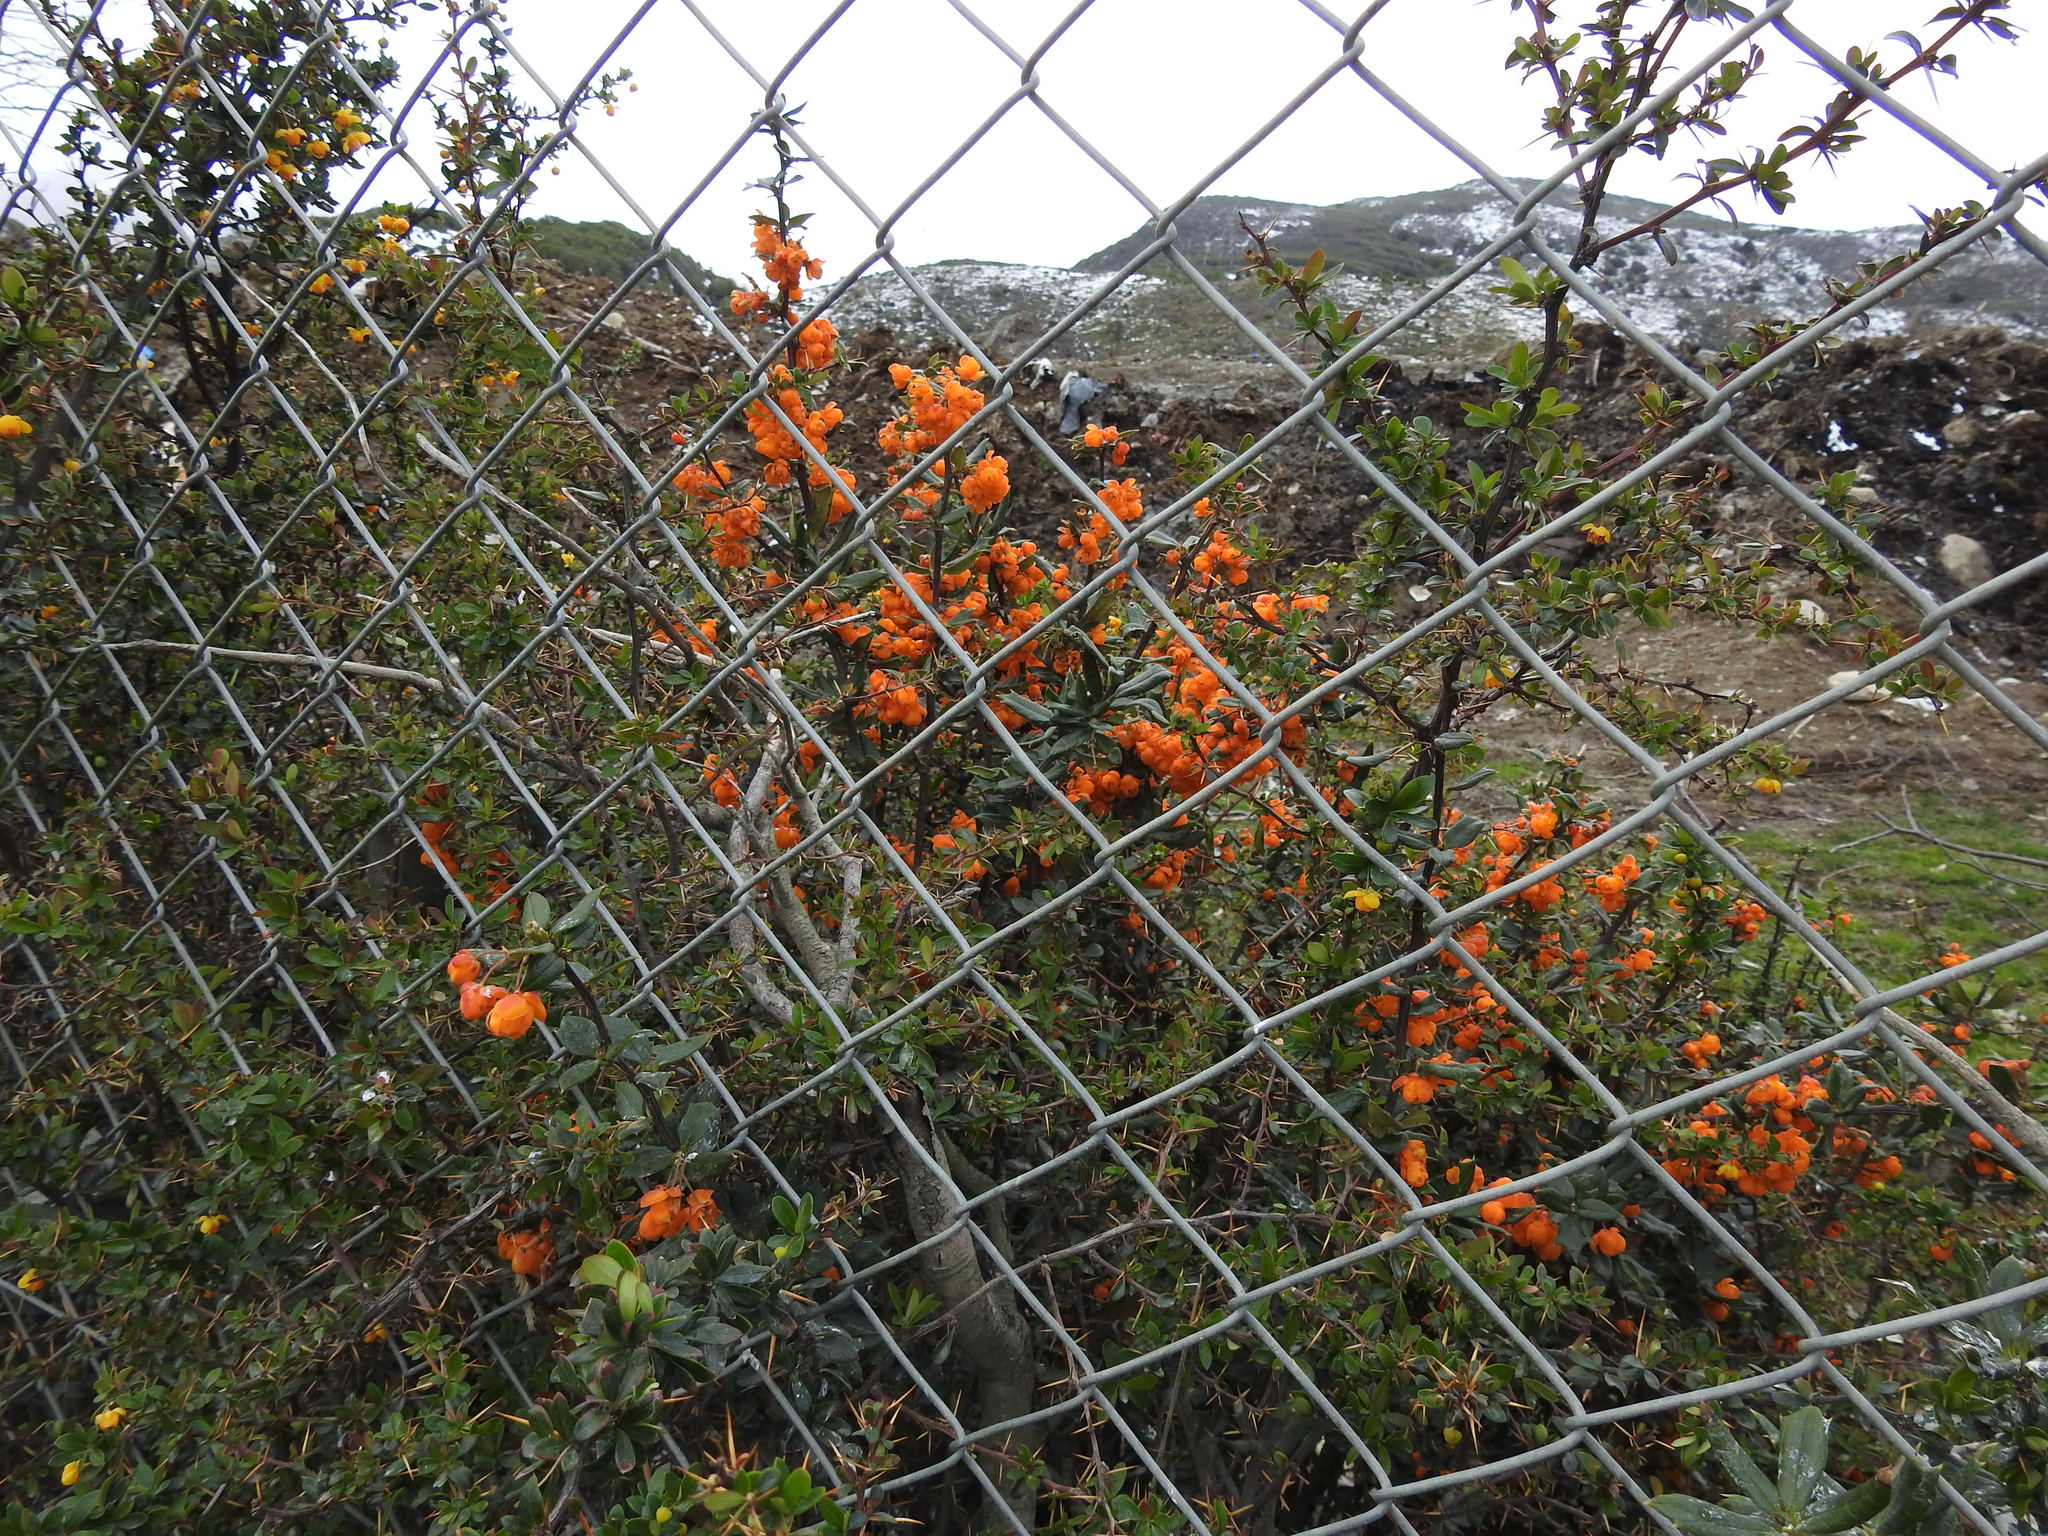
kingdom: Plantae
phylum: Tracheophyta
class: Magnoliopsida
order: Ranunculales
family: Berberidaceae
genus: Berberis
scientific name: Berberis ilicifolia
